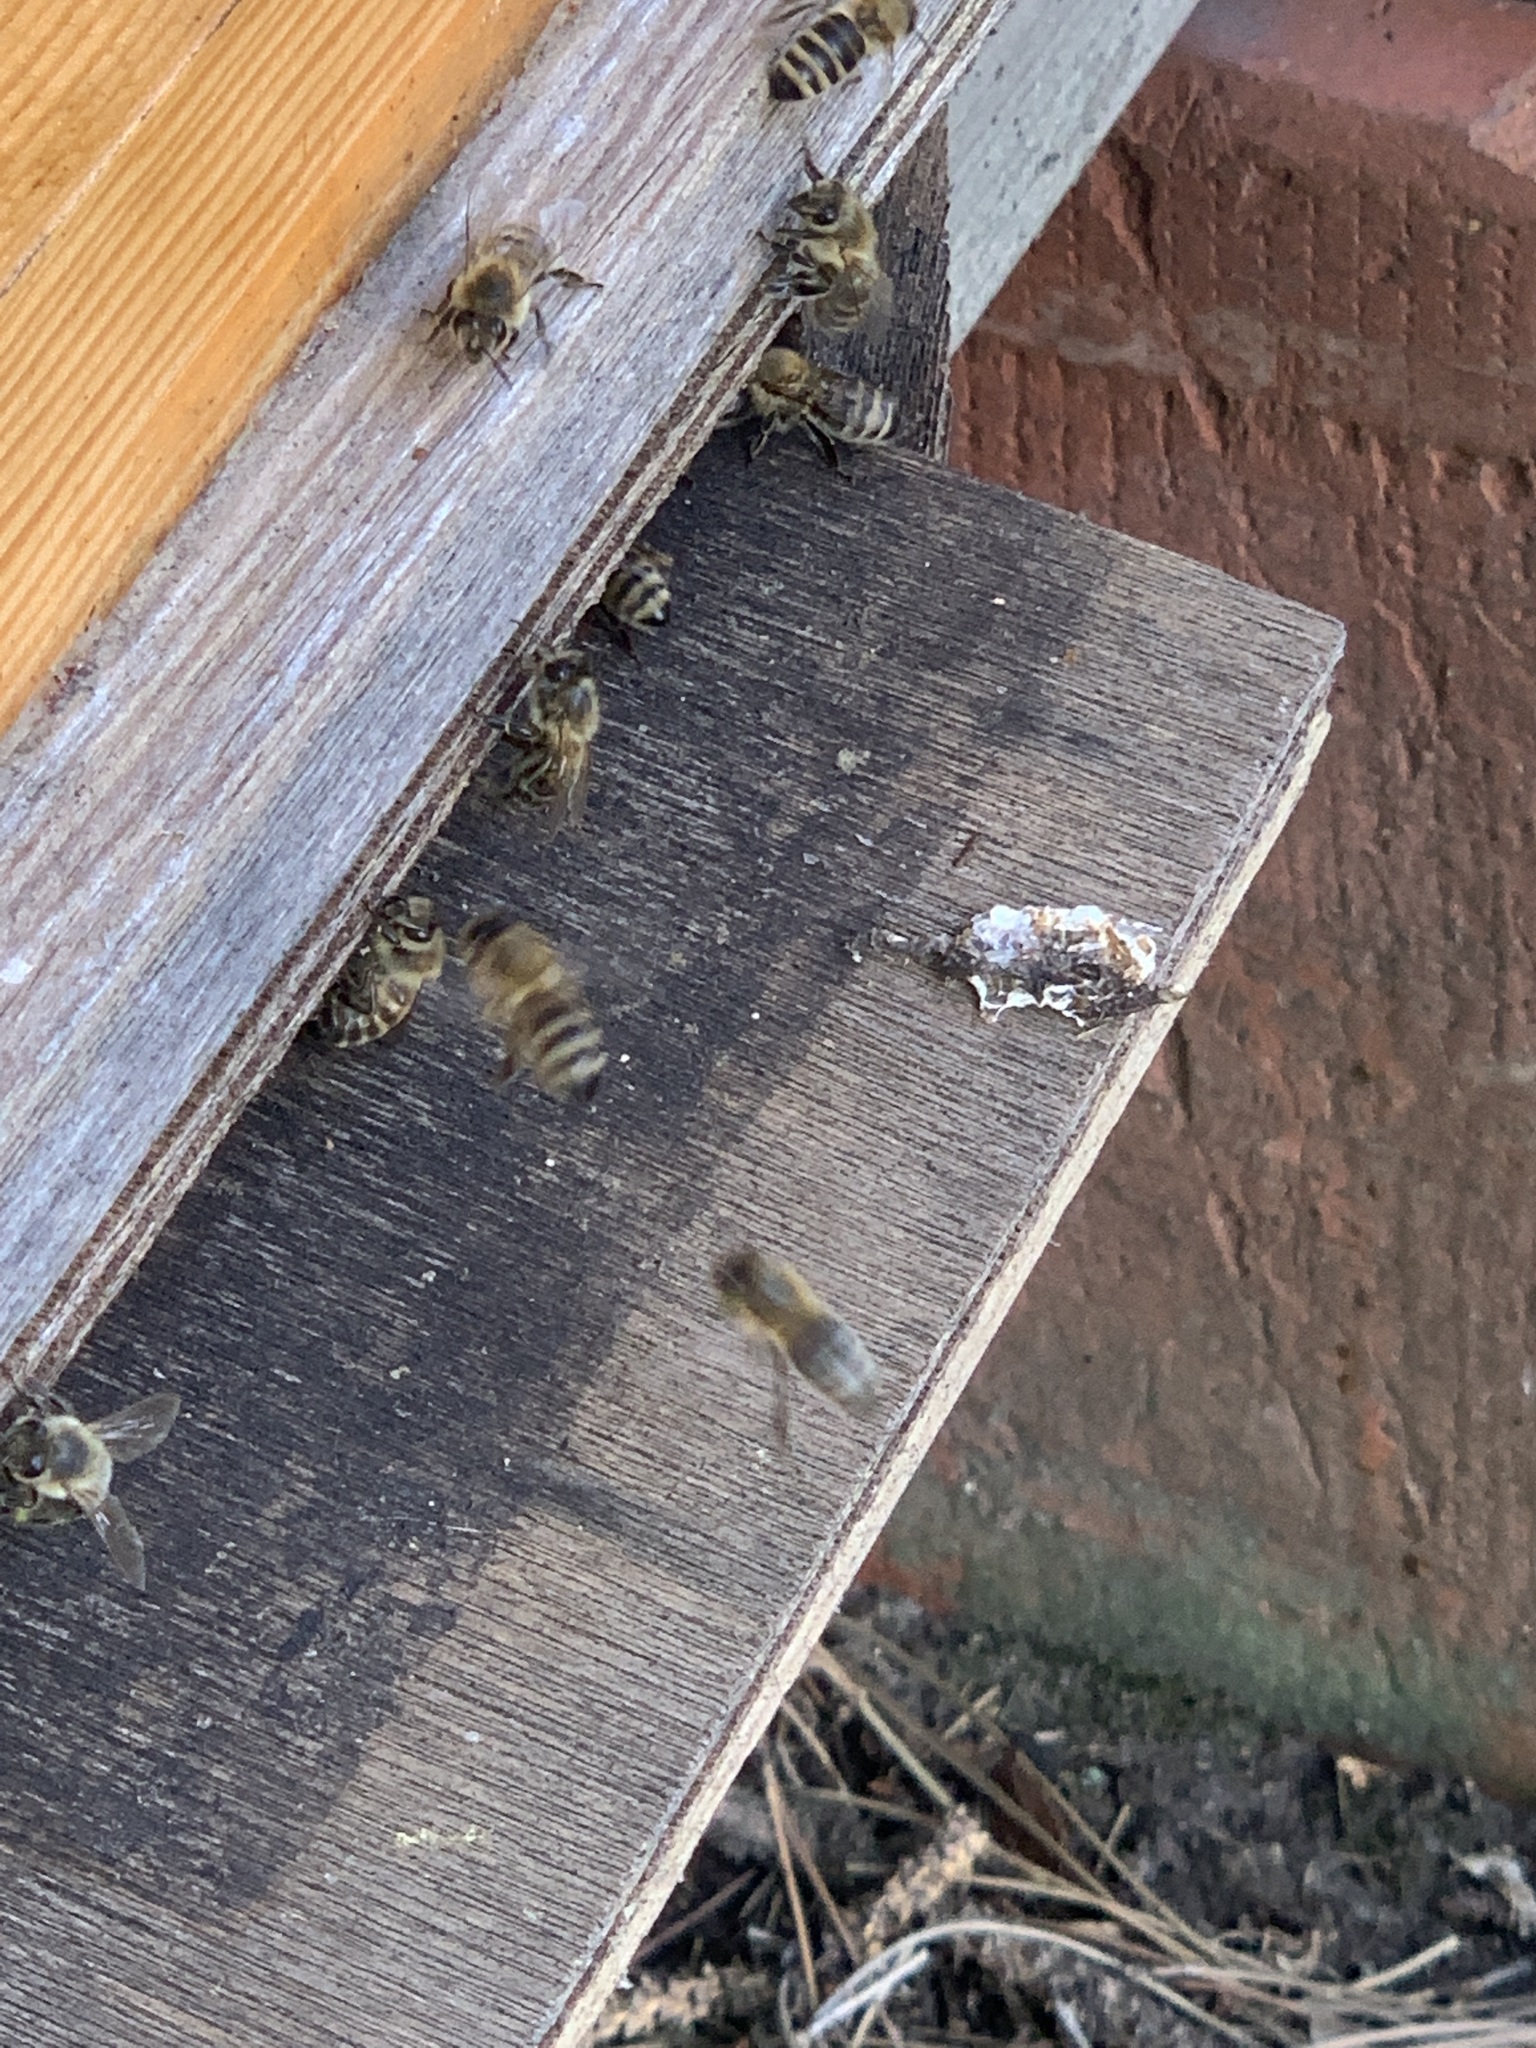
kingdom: Animalia
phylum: Arthropoda
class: Insecta
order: Hymenoptera
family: Apidae
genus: Apis
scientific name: Apis mellifera
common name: Honey bee
